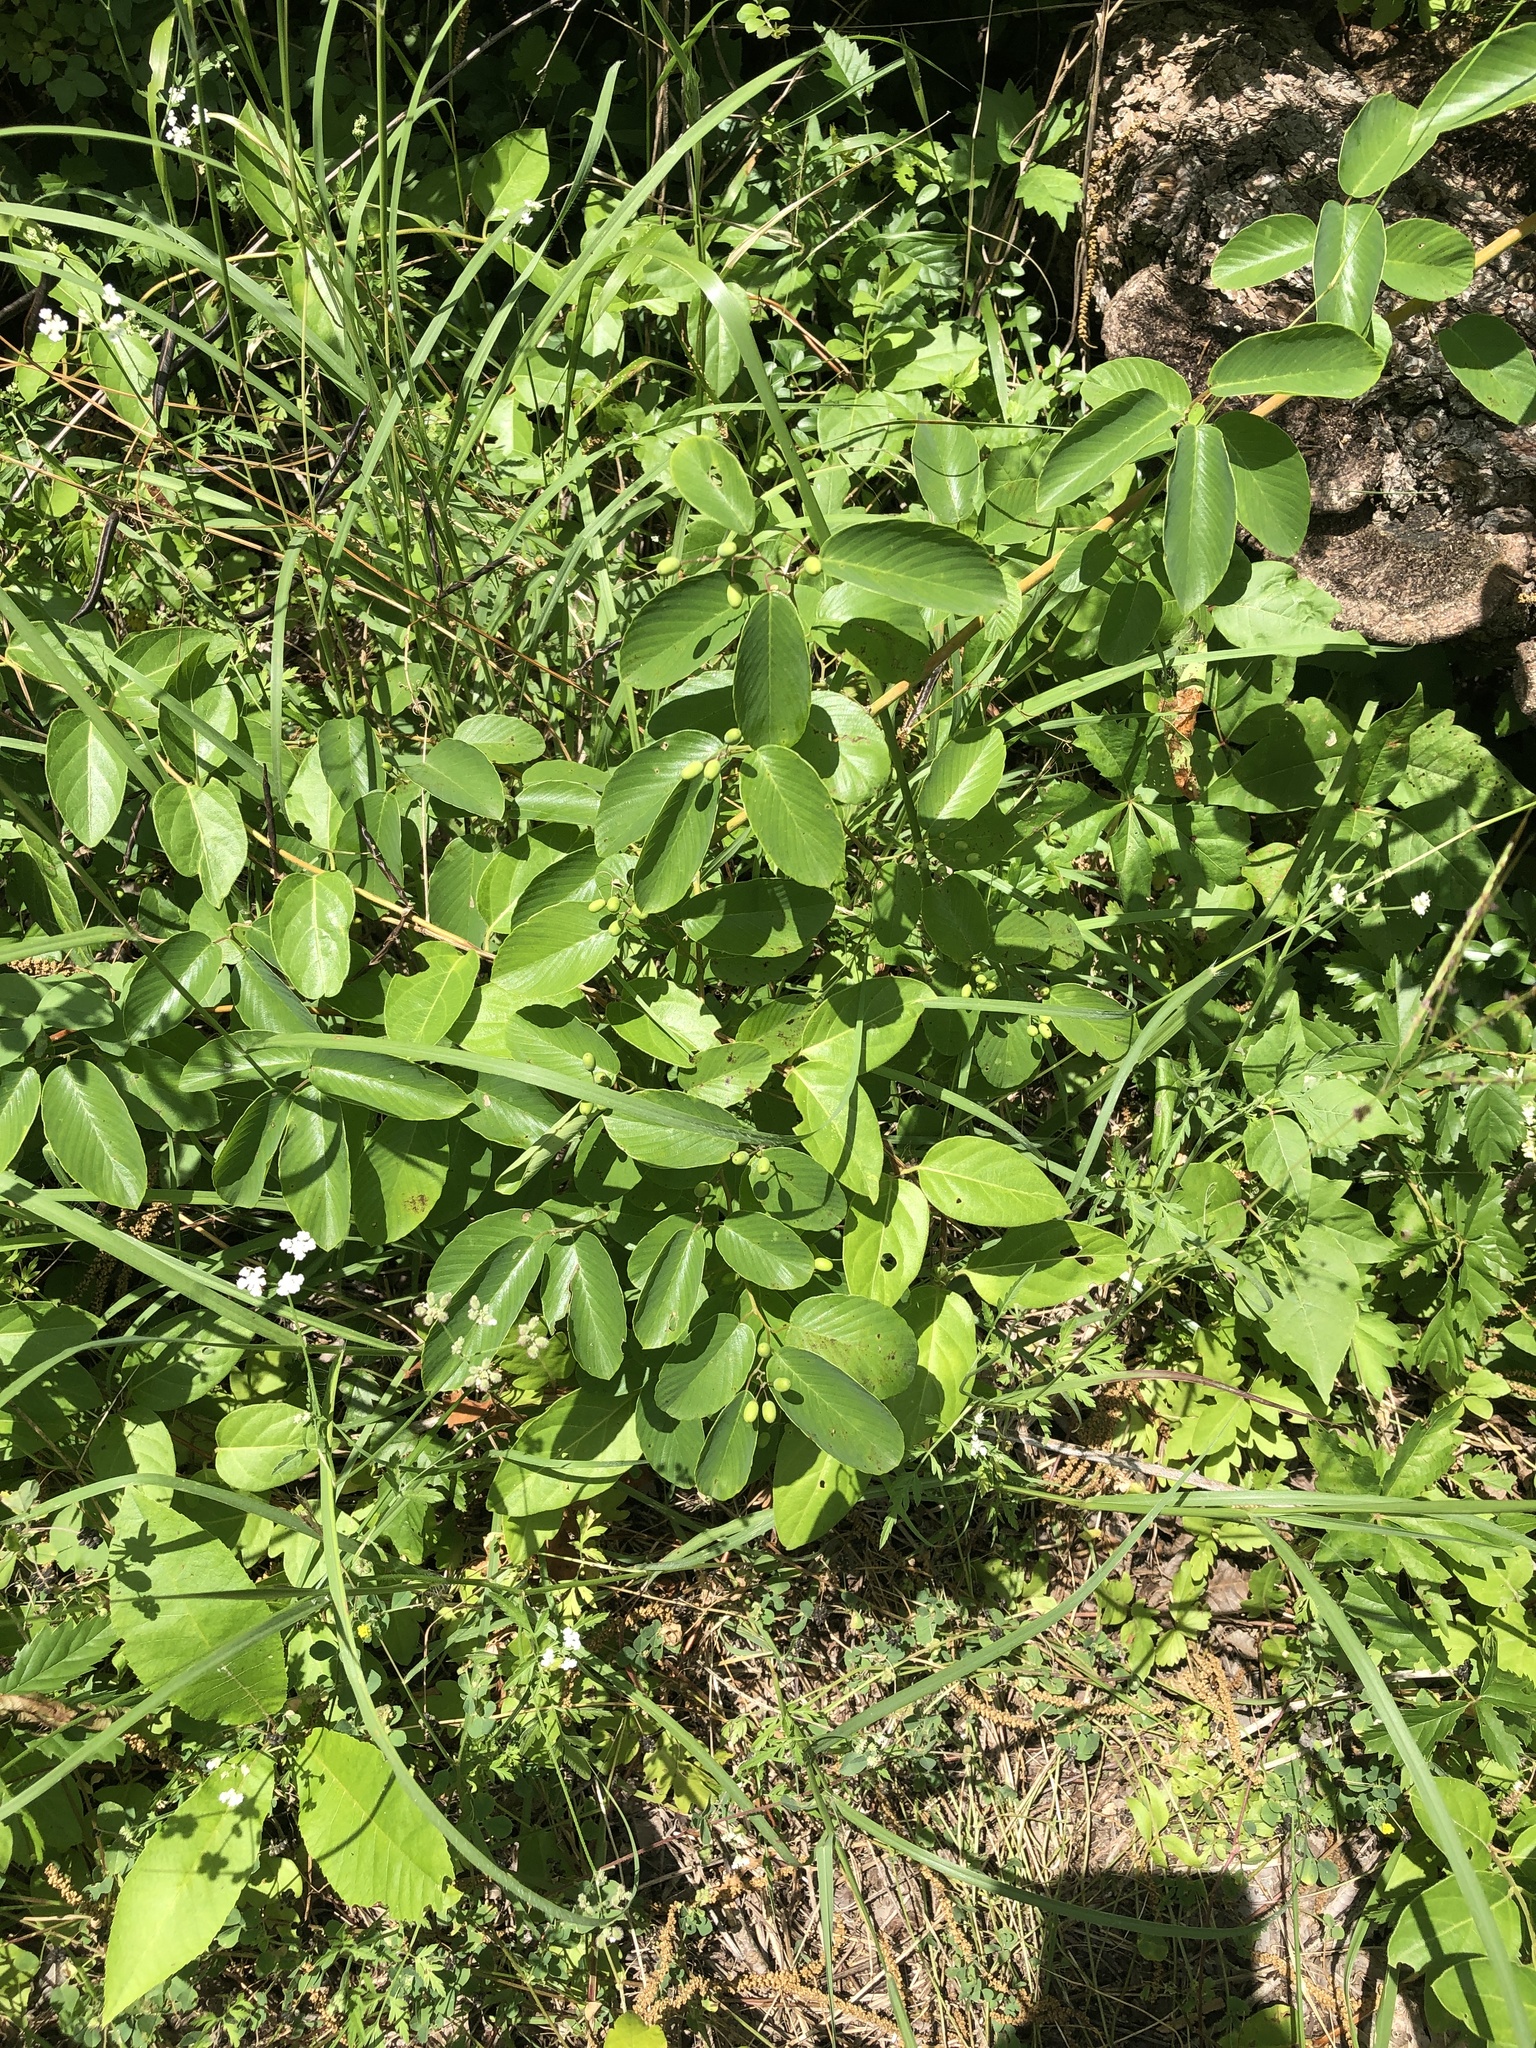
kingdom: Plantae
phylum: Tracheophyta
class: Magnoliopsida
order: Rosales
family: Rhamnaceae
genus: Berchemia
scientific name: Berchemia scandens
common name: Supplejack
